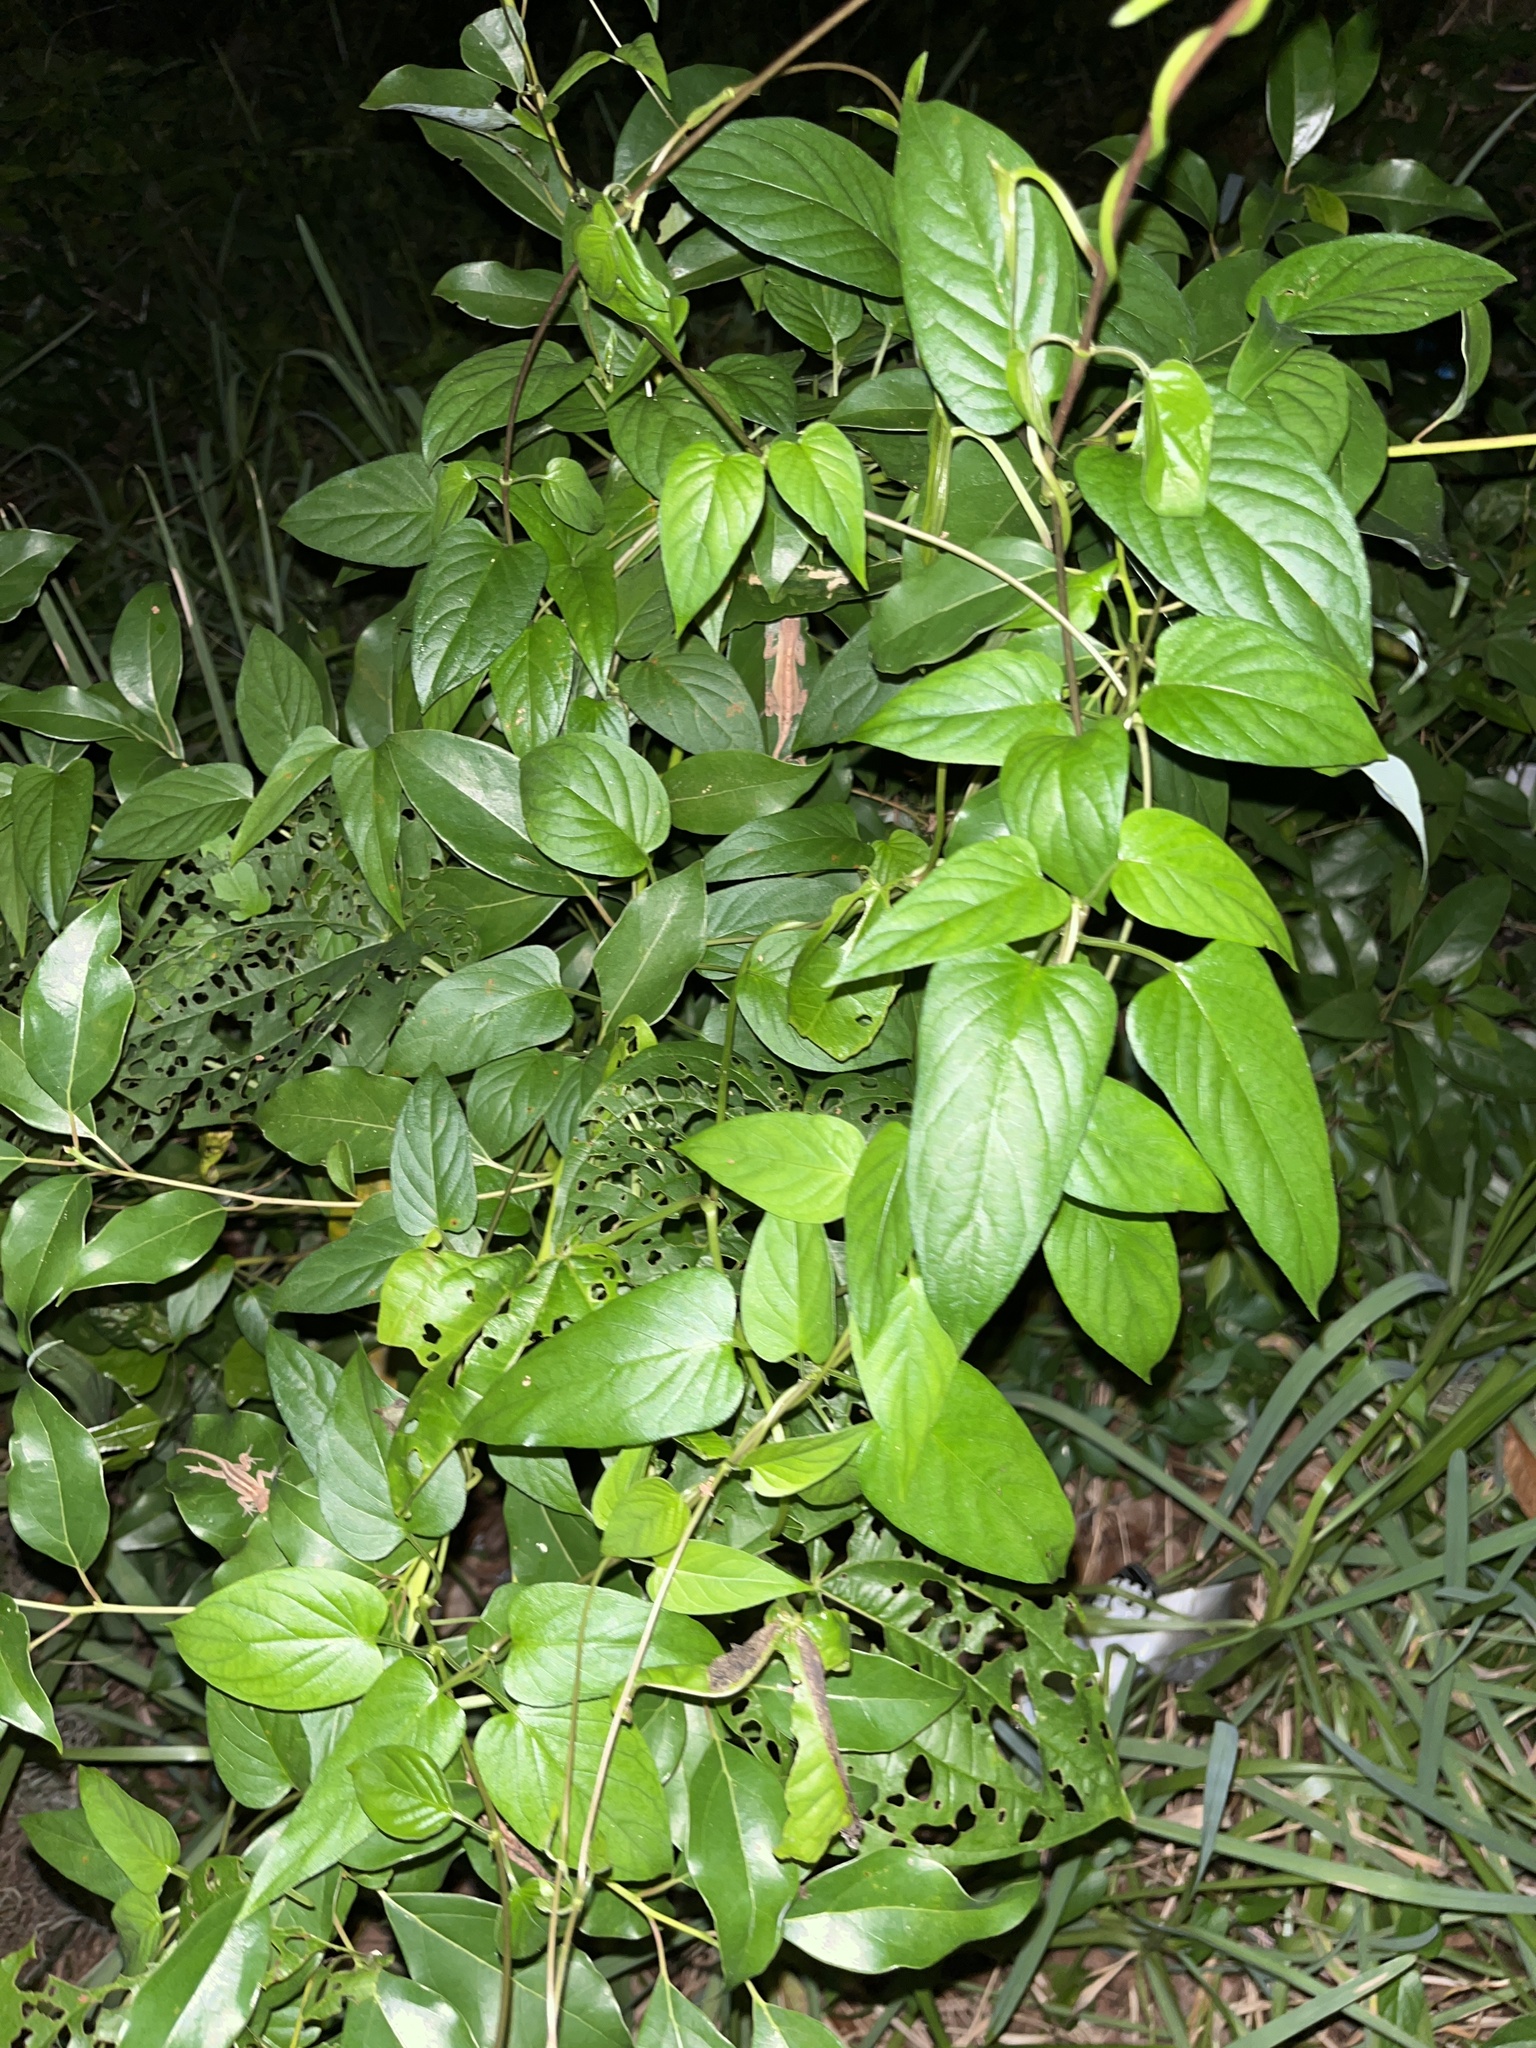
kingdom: Plantae
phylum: Tracheophyta
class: Magnoliopsida
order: Gentianales
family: Rubiaceae
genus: Paederia
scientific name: Paederia foetida
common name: Stinkvine
